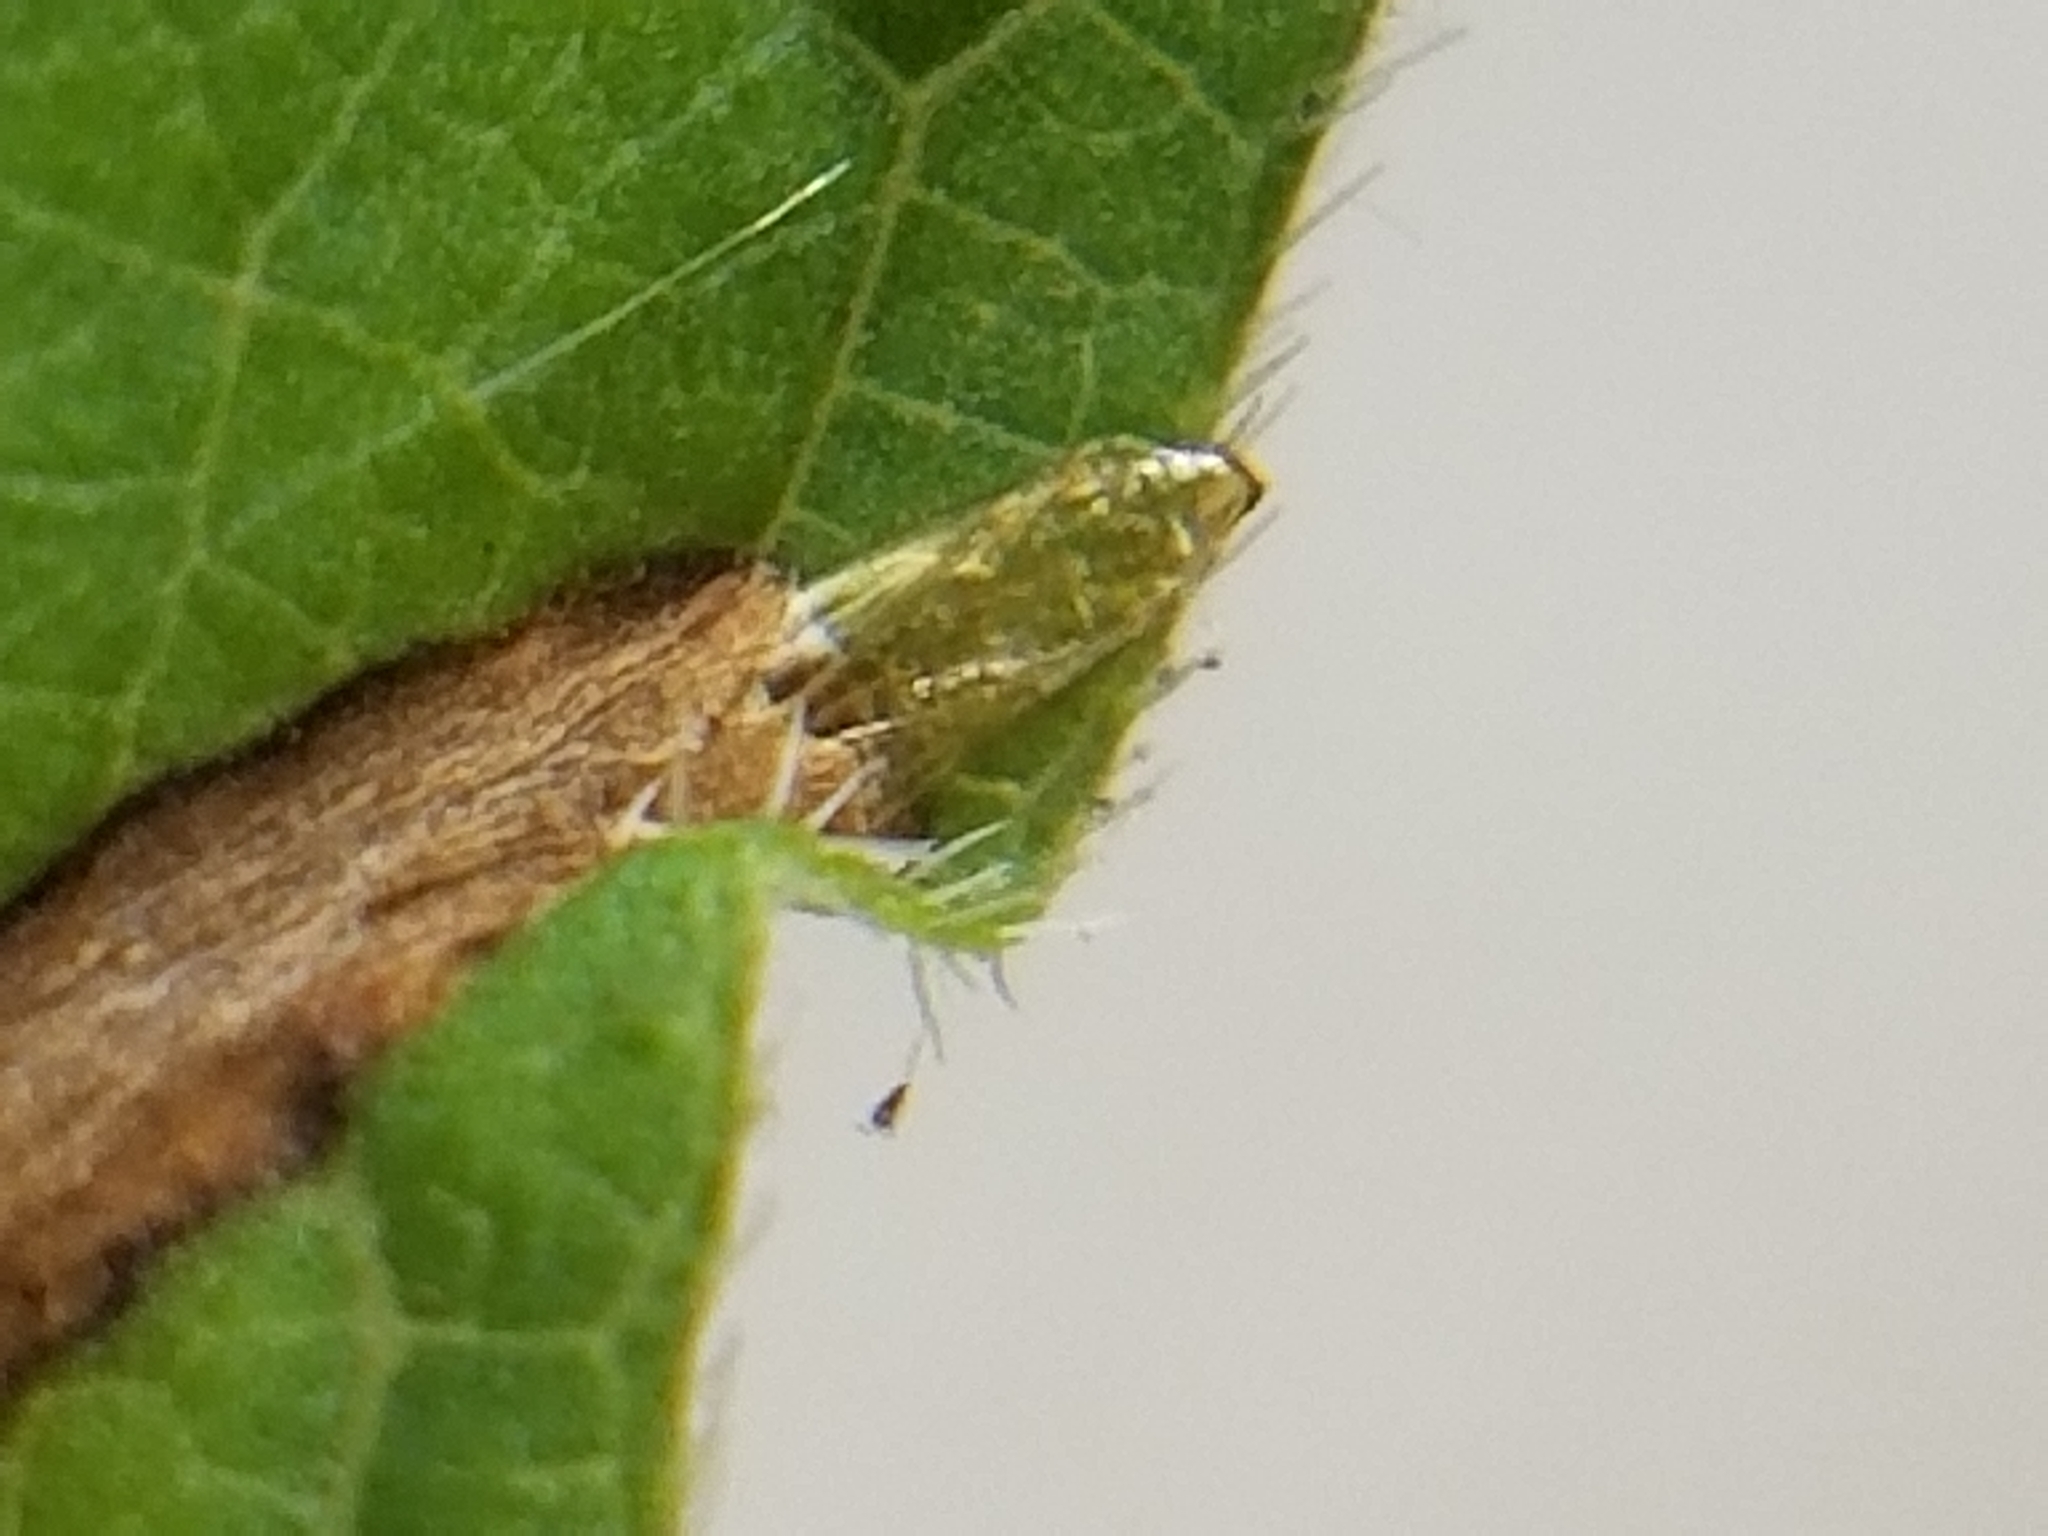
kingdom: Animalia
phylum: Arthropoda
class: Insecta
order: Lepidoptera
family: Gracillariidae
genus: Phyllocnistis
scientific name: Phyllocnistis vitifoliella
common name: Grape leaf-miner moth
